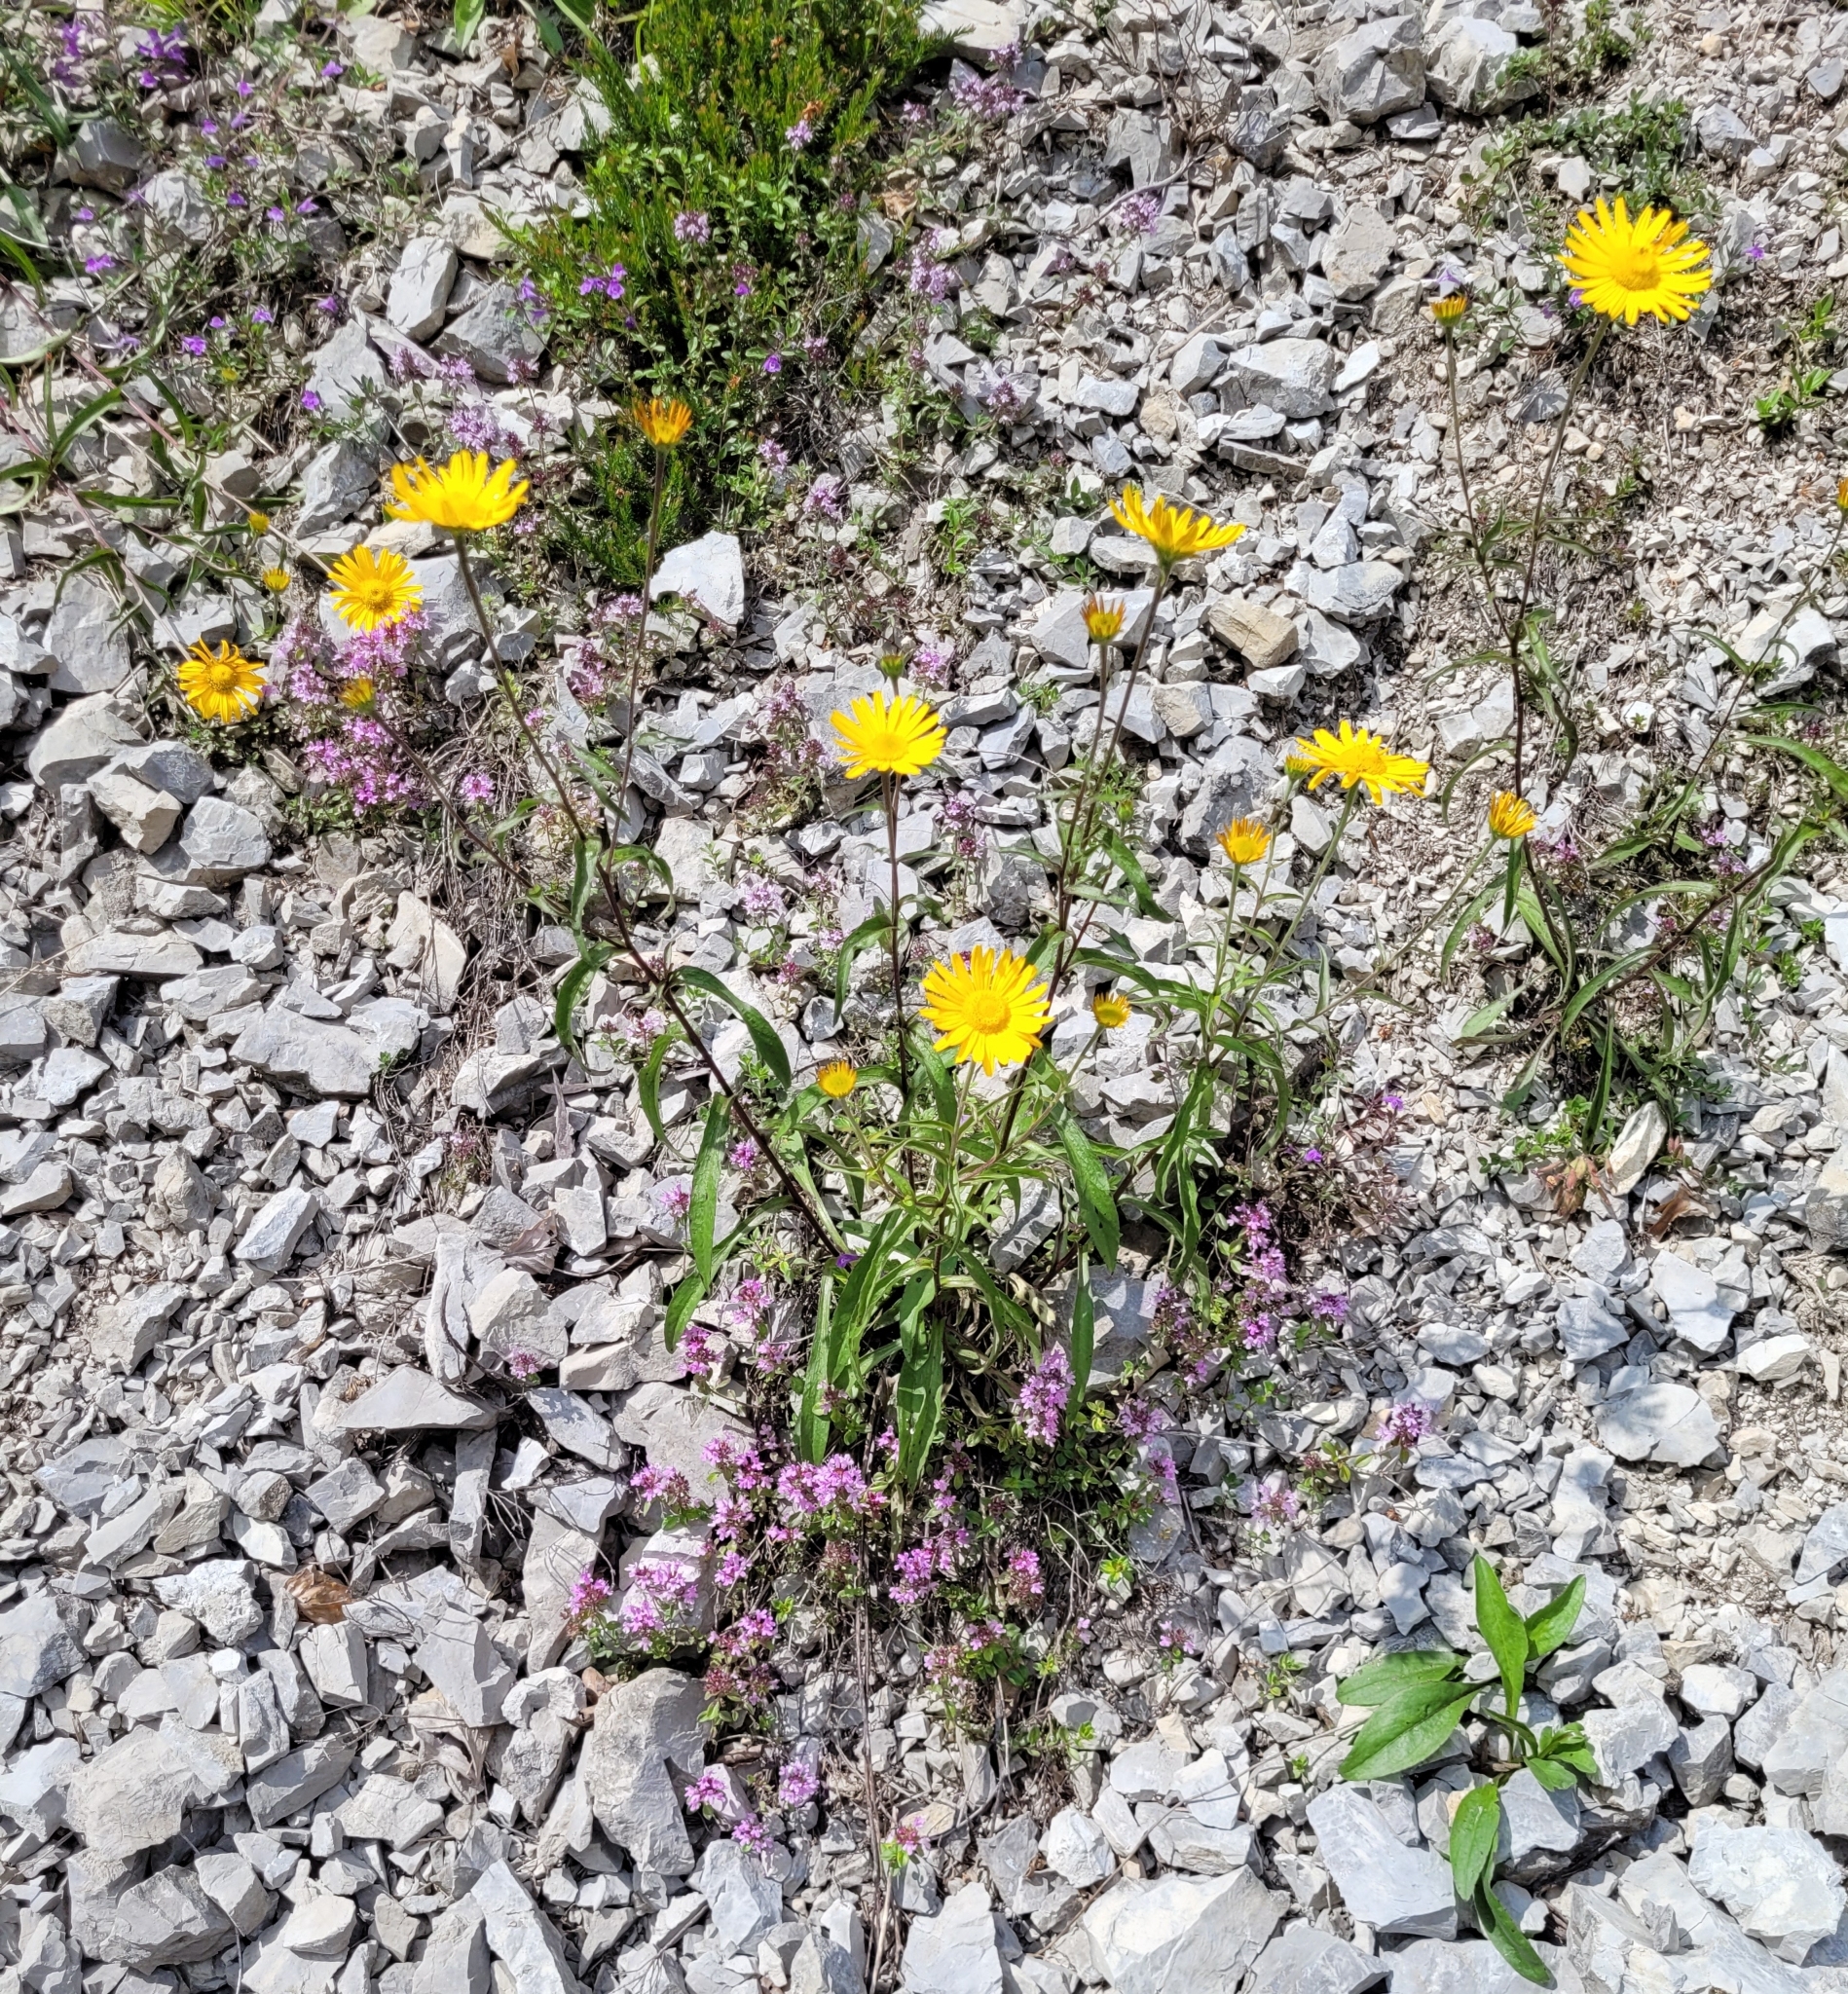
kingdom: Plantae
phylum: Tracheophyta
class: Magnoliopsida
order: Asterales
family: Asteraceae
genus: Buphthalmum
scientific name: Buphthalmum salicifolium
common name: Willow-leaved yellow-oxeye
